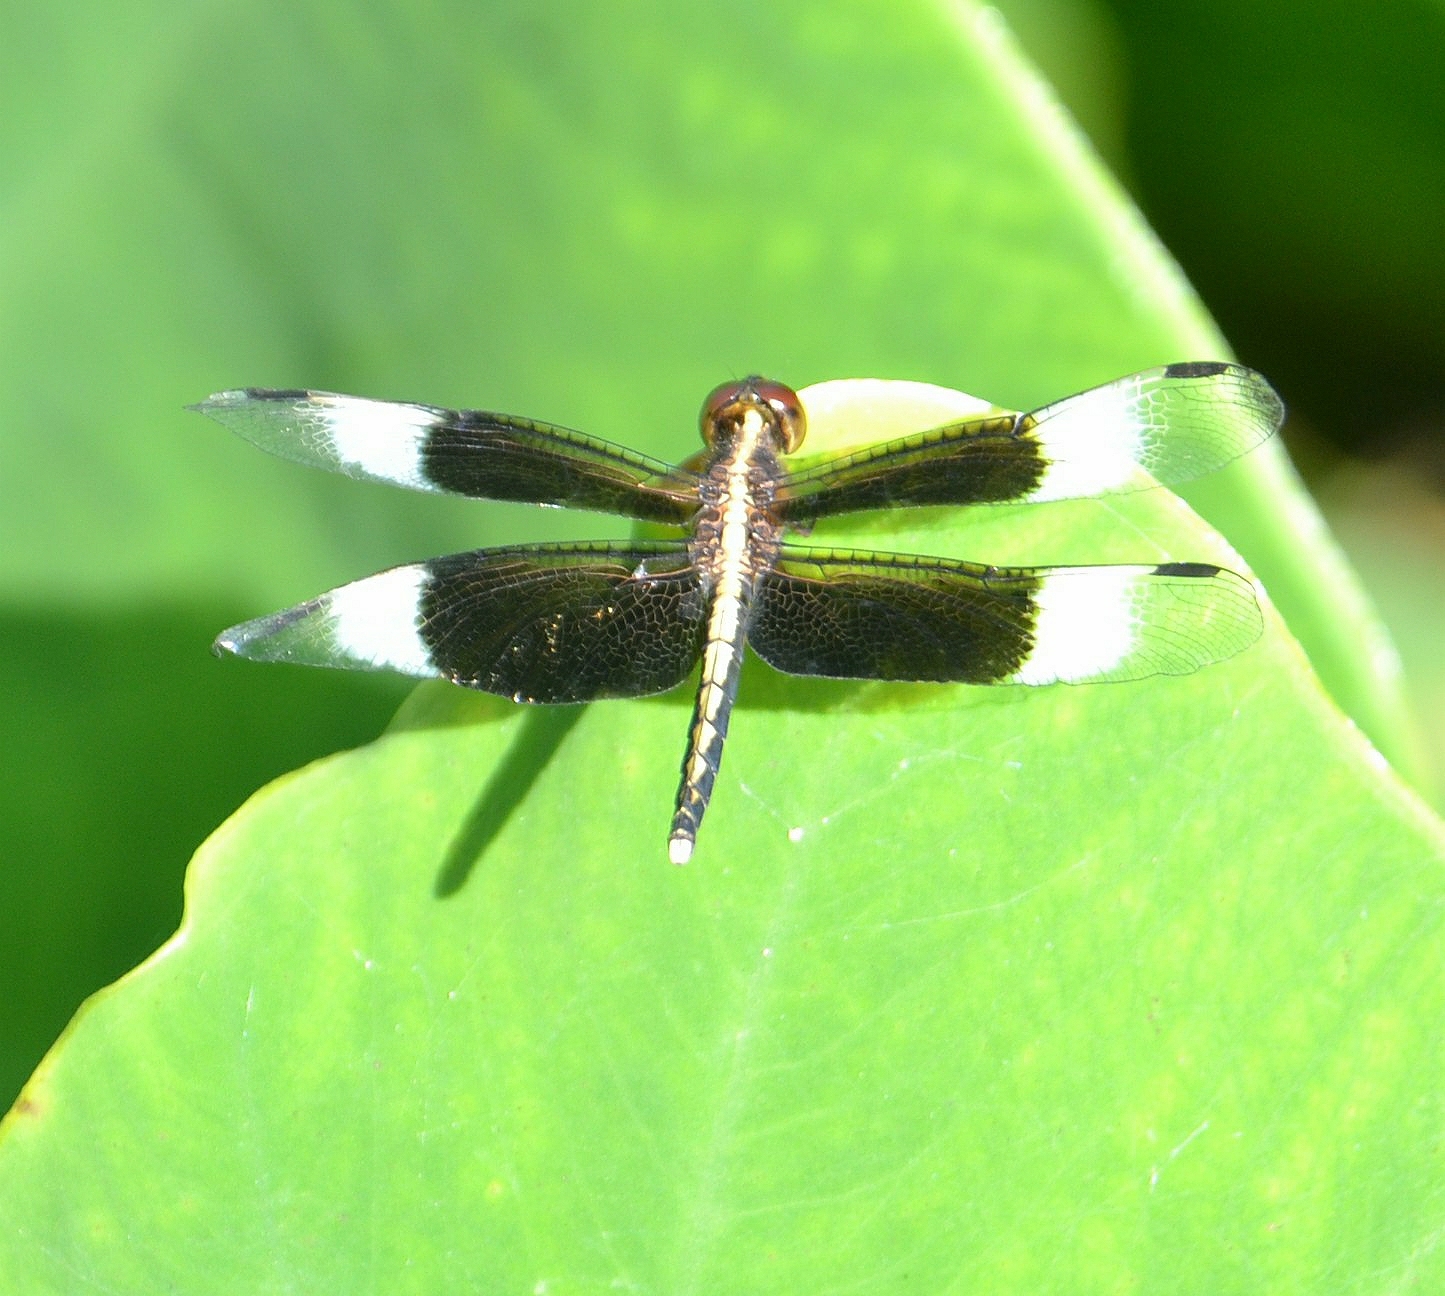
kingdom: Animalia
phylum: Arthropoda
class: Insecta
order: Odonata
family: Libellulidae
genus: Neurothemis
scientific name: Neurothemis tullia
